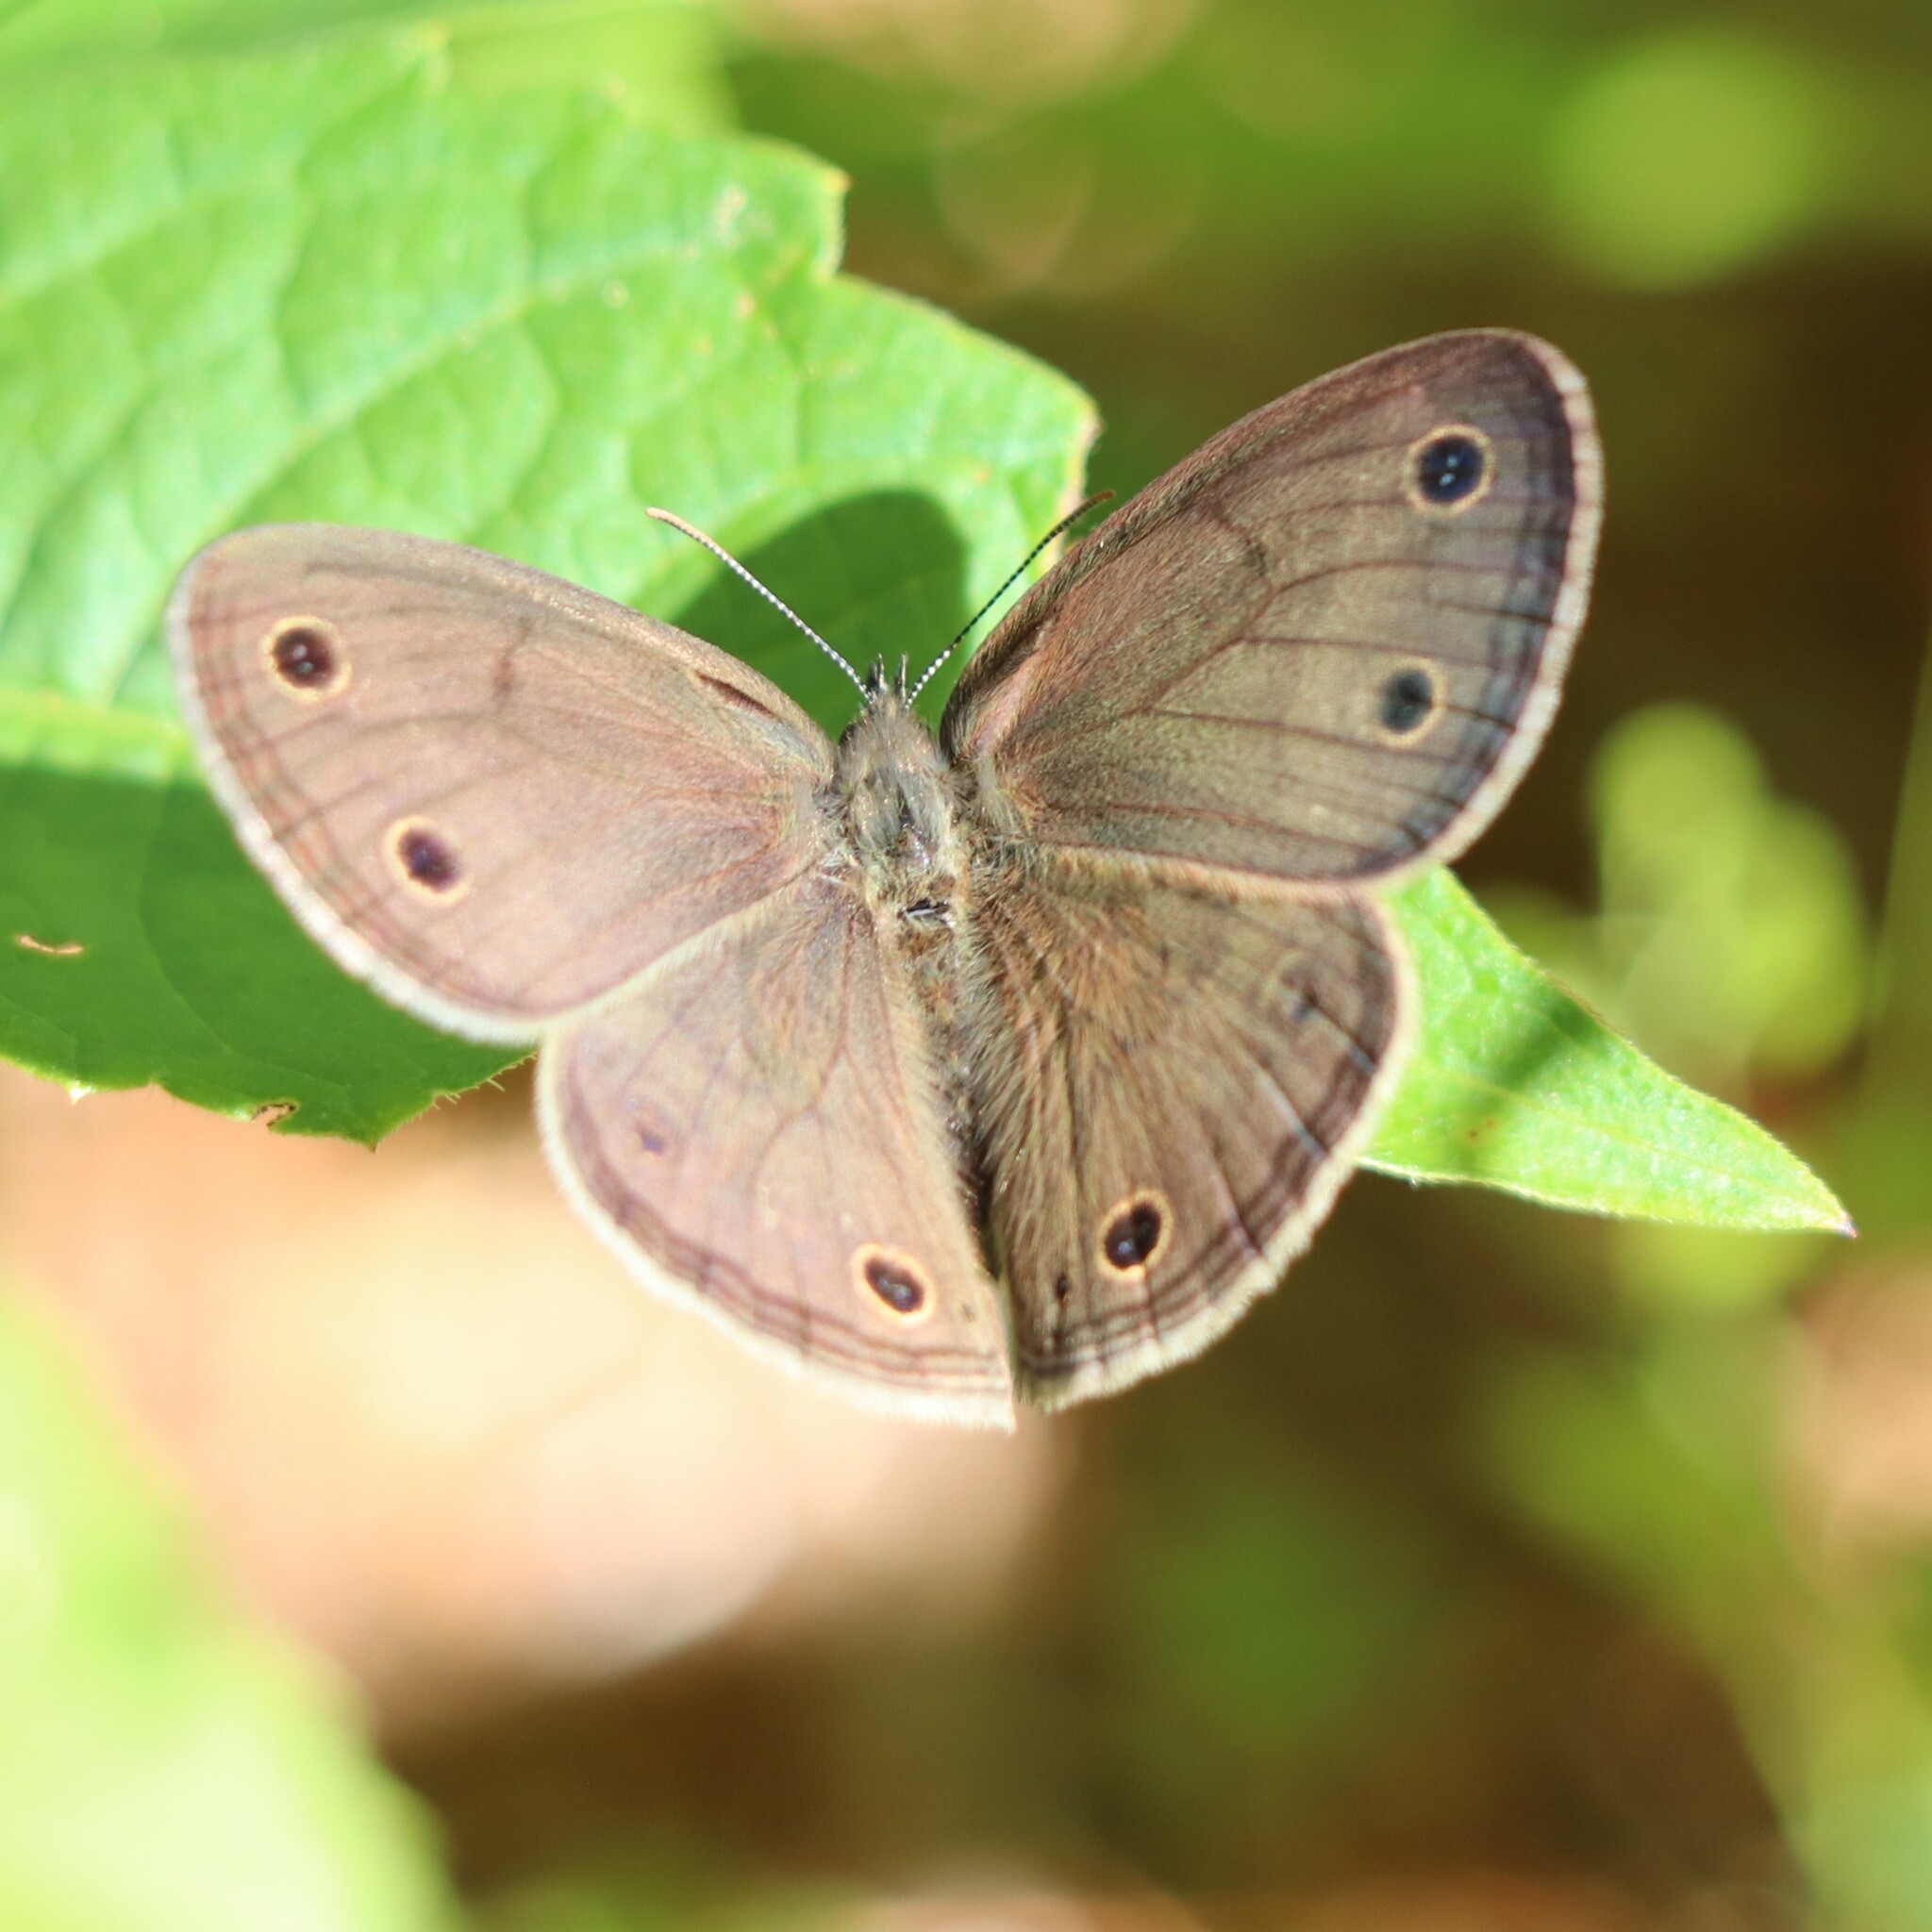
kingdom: Animalia
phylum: Arthropoda
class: Insecta
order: Lepidoptera
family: Nymphalidae
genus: Euptychia
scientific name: Euptychia cymela
